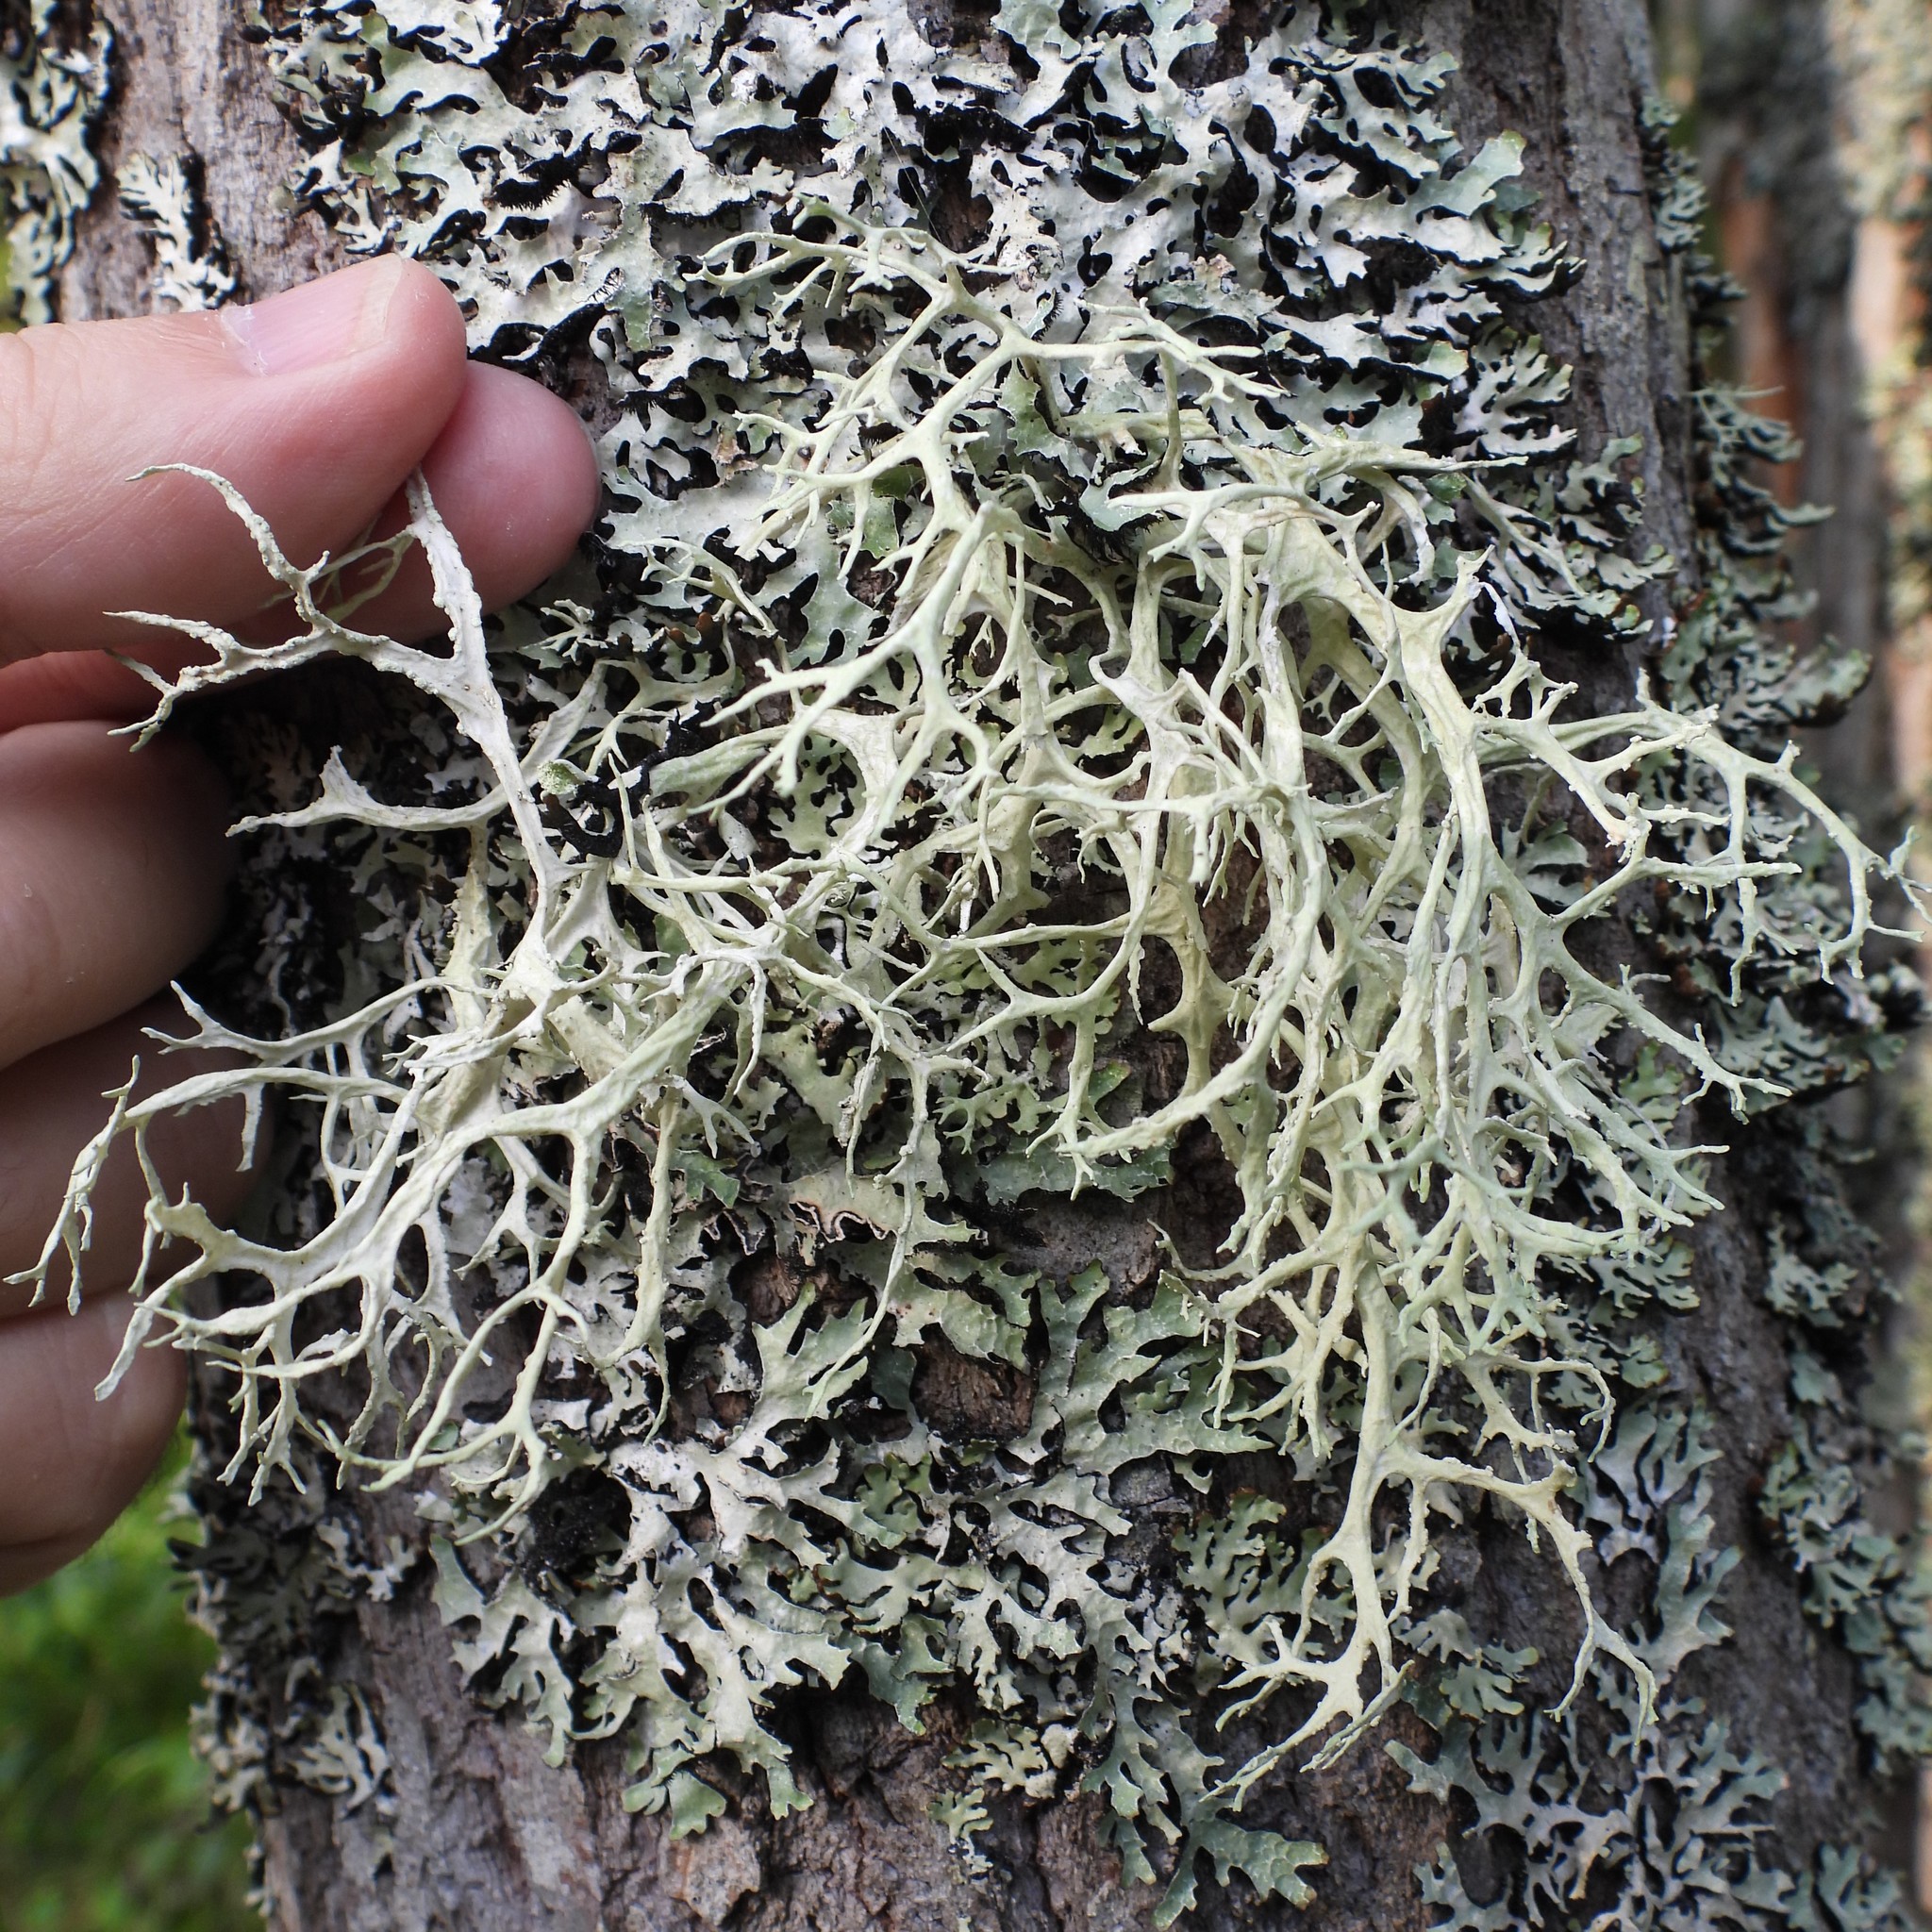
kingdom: Fungi
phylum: Ascomycota
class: Lecanoromycetes
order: Lecanorales
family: Parmeliaceae
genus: Evernia
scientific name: Evernia prunastri
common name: Oak moss
